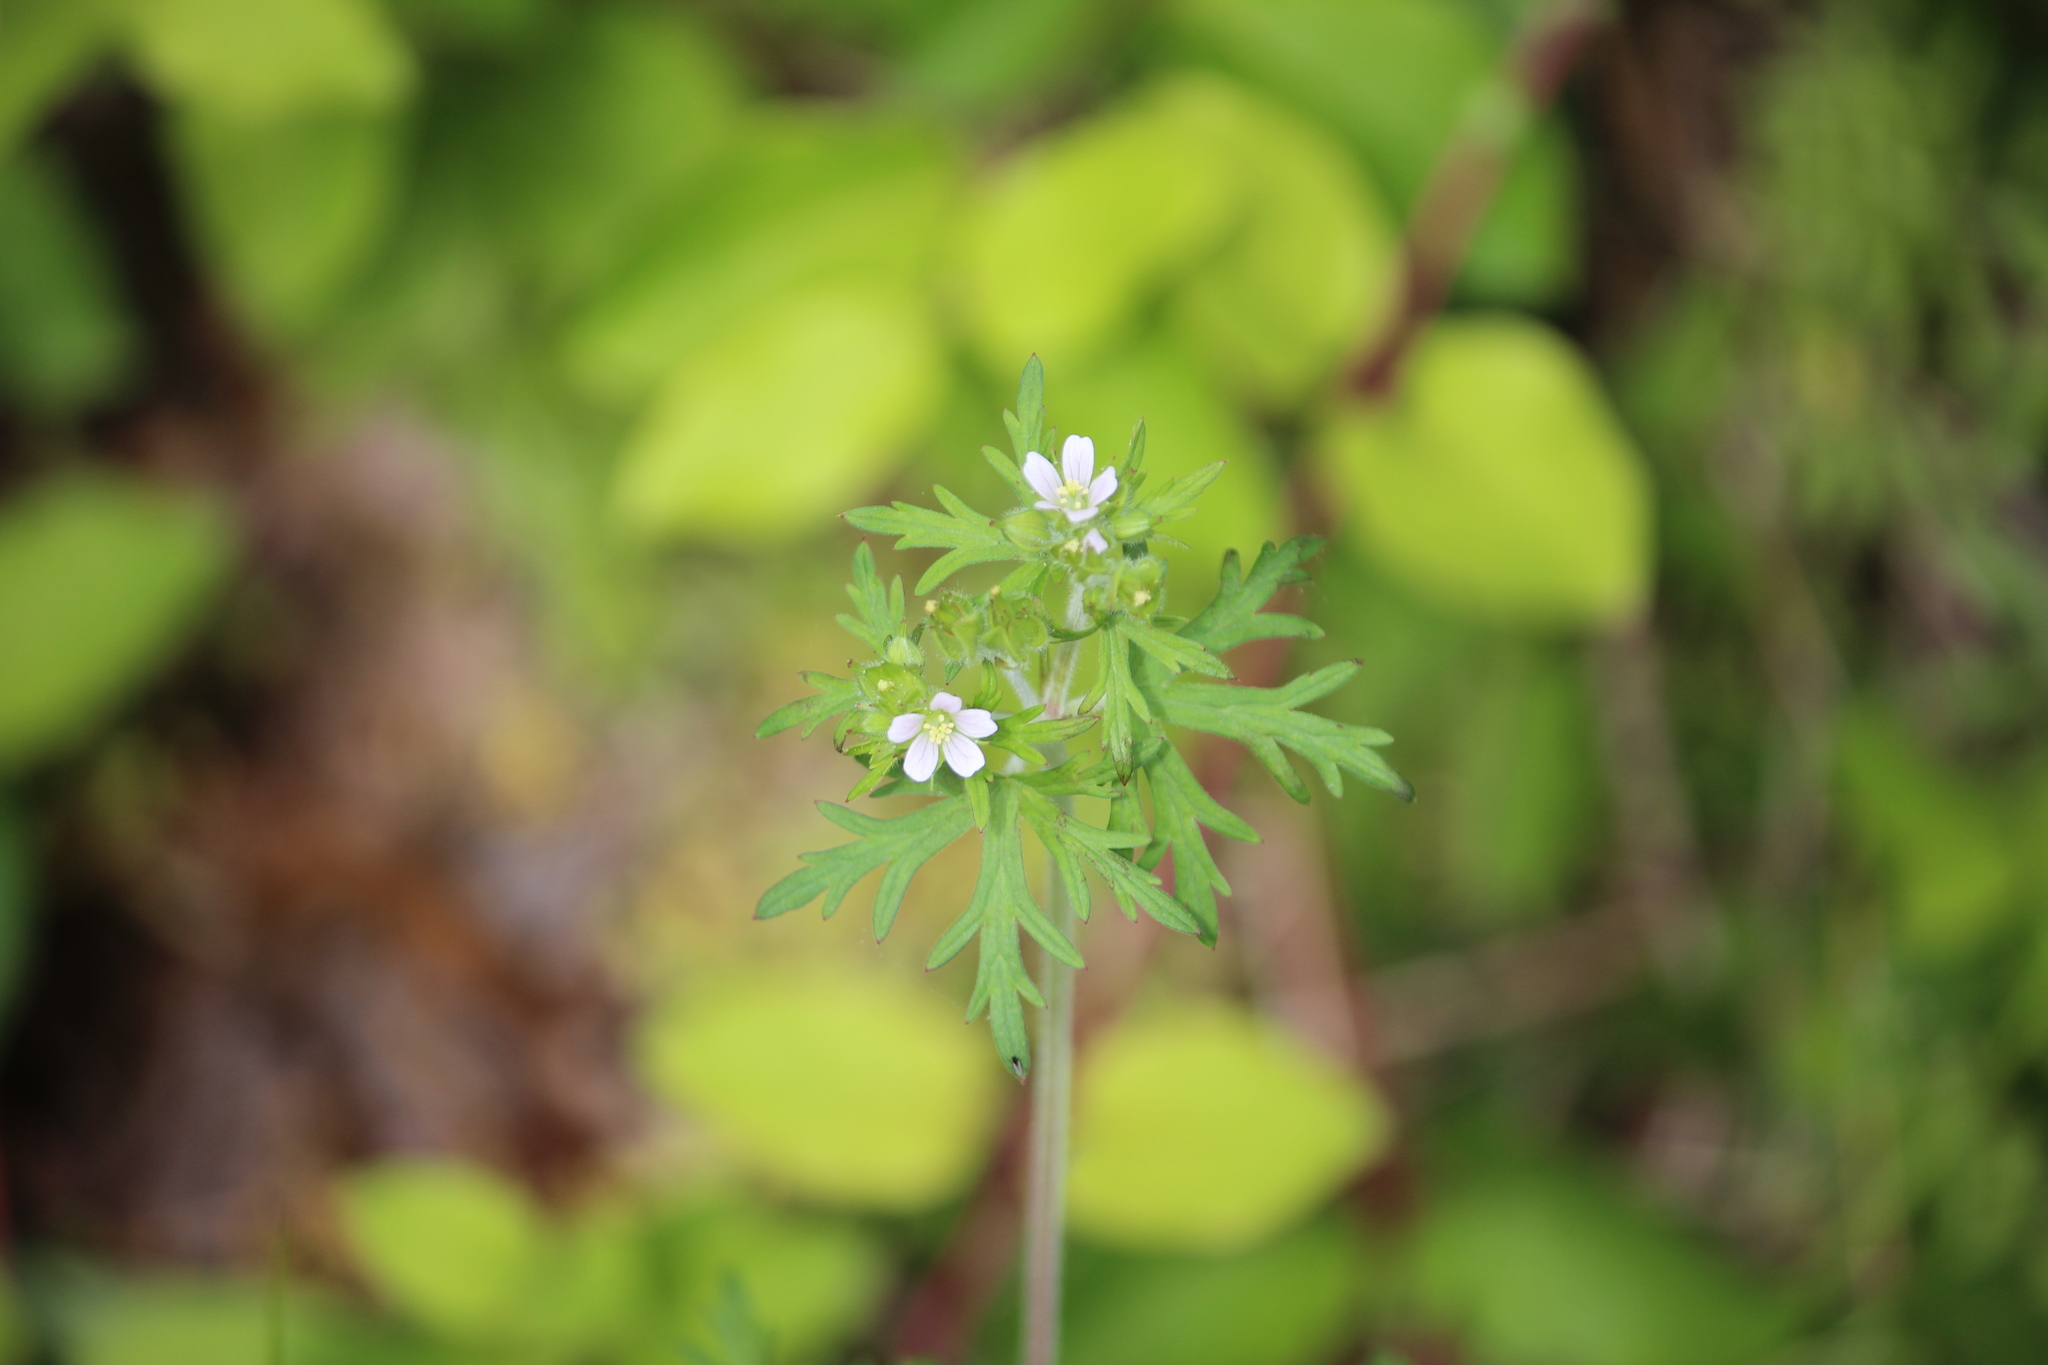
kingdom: Plantae
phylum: Tracheophyta
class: Magnoliopsida
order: Geraniales
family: Geraniaceae
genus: Geranium
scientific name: Geranium carolinianum
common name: Carolina crane's-bill
